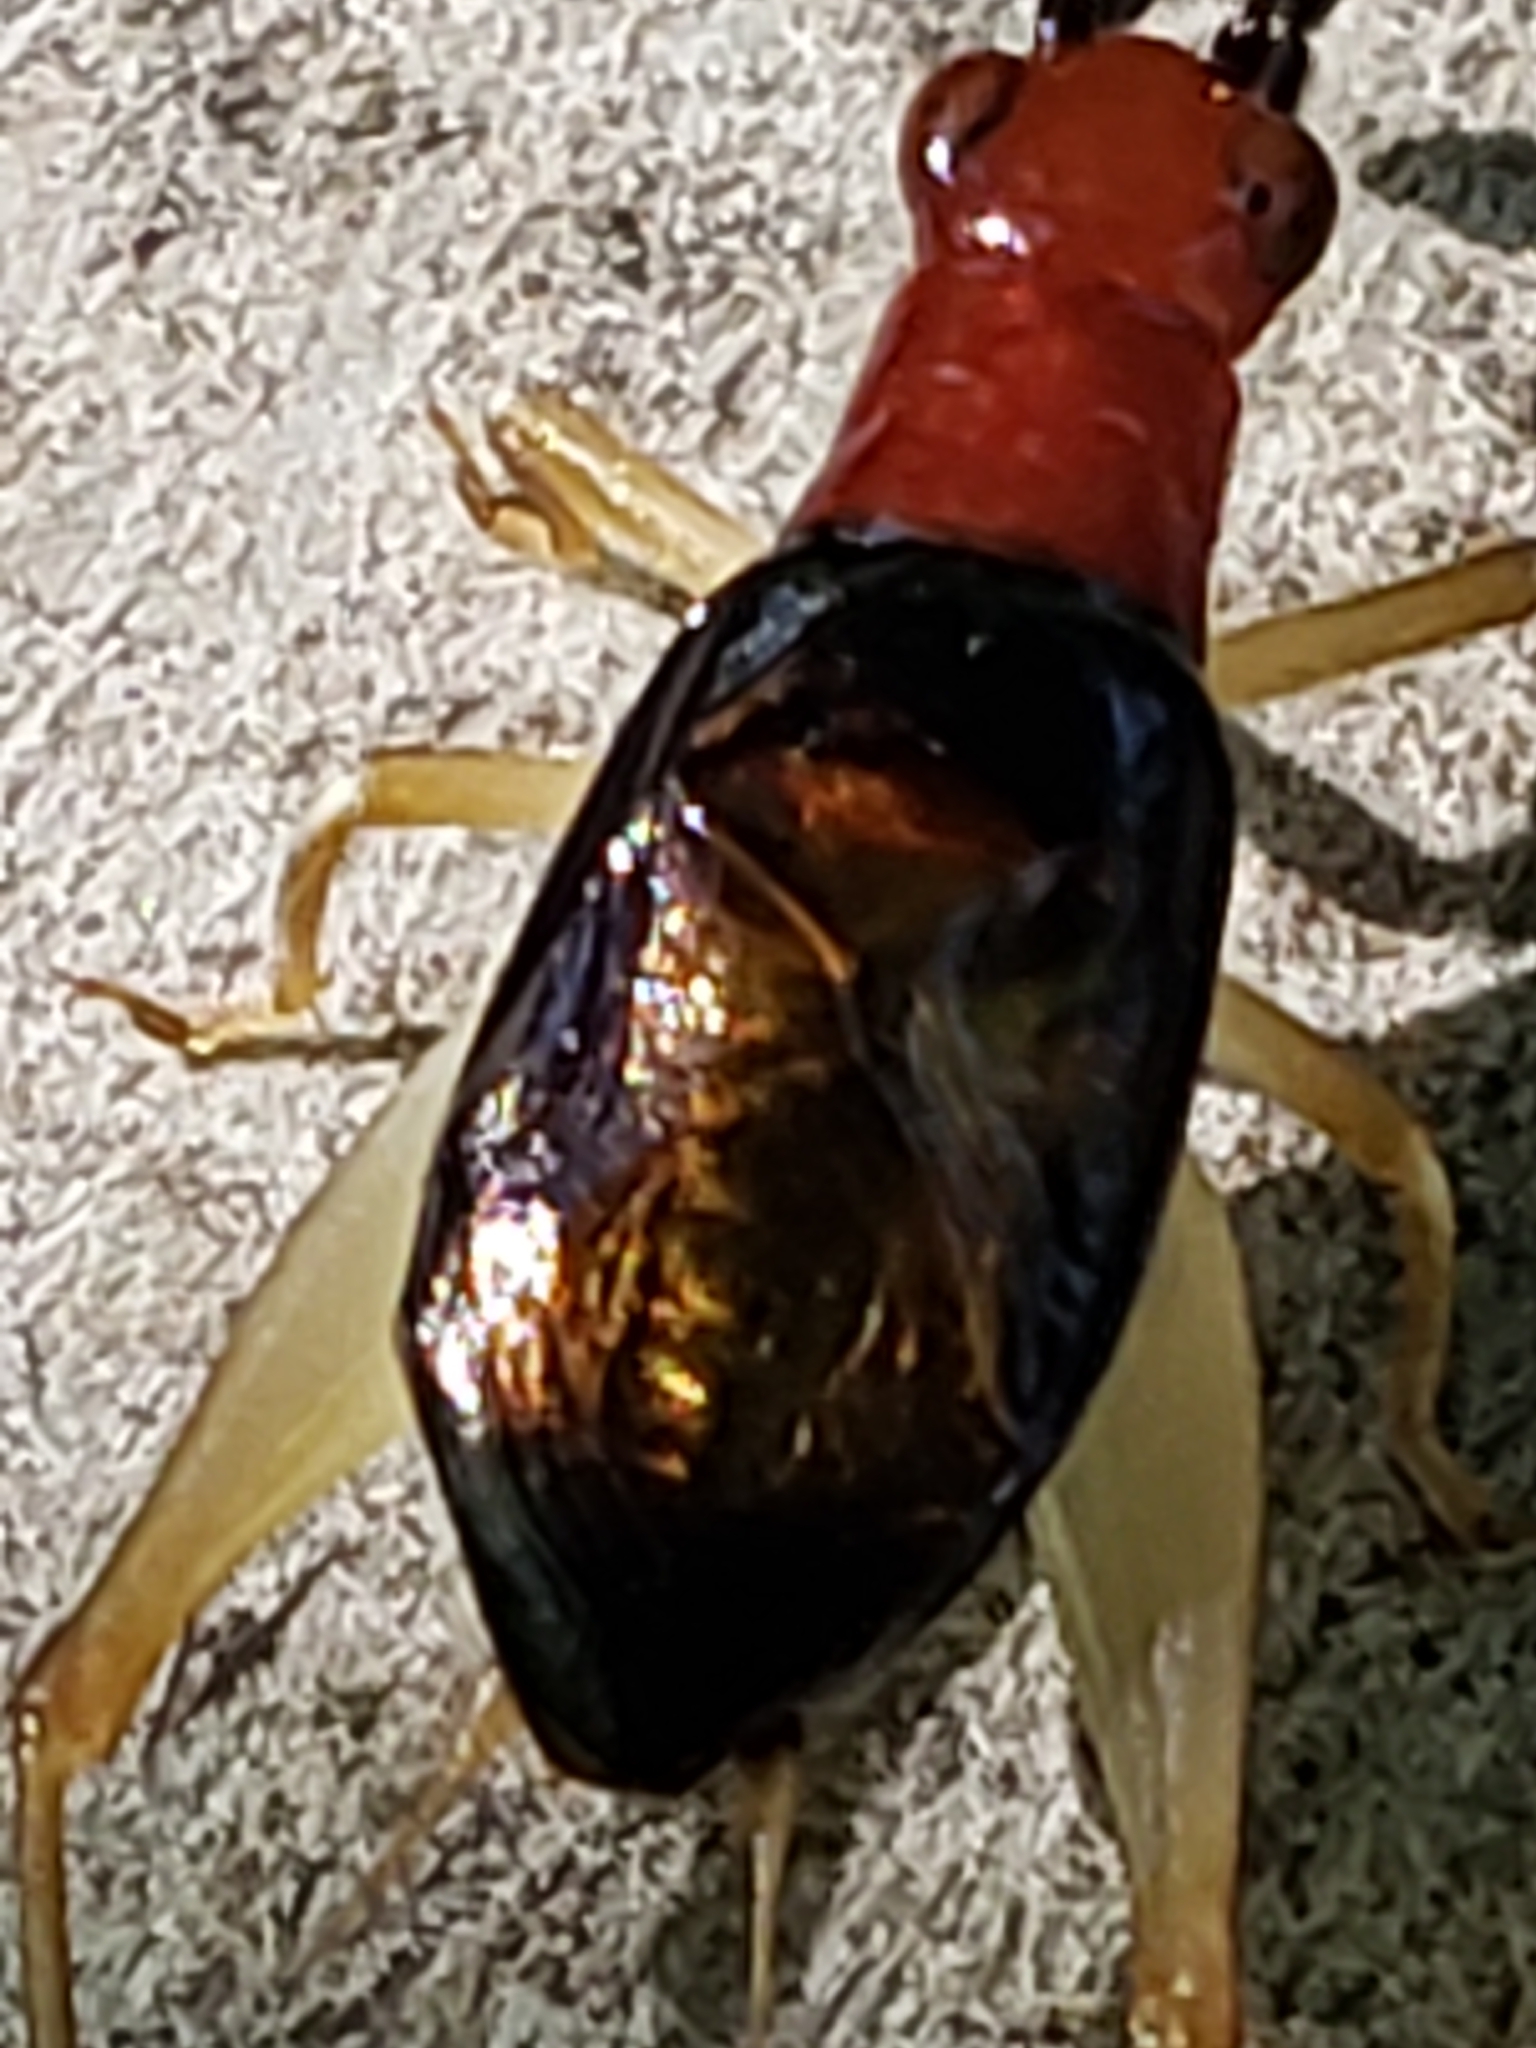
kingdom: Animalia
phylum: Arthropoda
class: Insecta
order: Orthoptera
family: Trigonidiidae
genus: Phyllopalpus
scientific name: Phyllopalpus pulchellus
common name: Handsome trig
